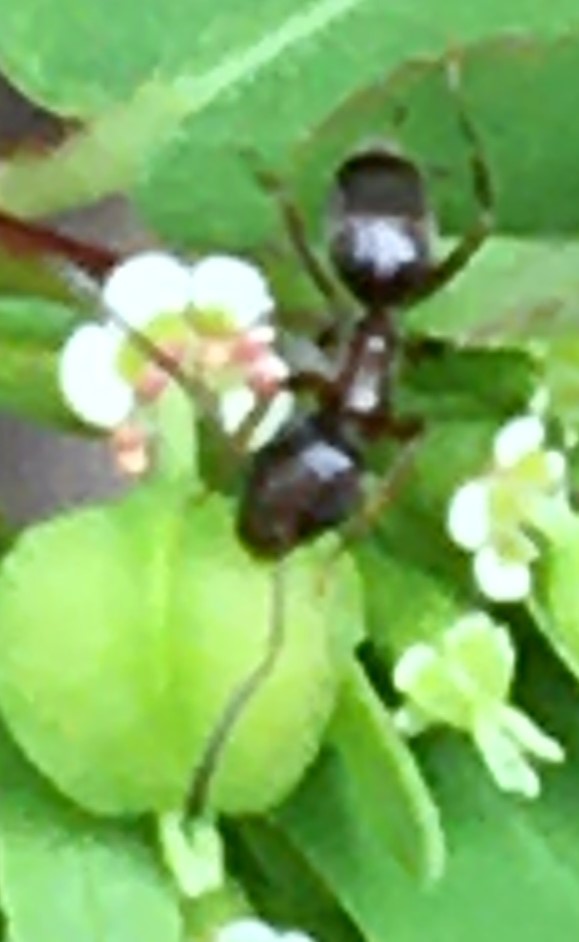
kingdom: Animalia
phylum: Arthropoda
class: Insecta
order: Hymenoptera
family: Formicidae
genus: Tapinoma
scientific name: Tapinoma sessile
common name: Odorous house ant
